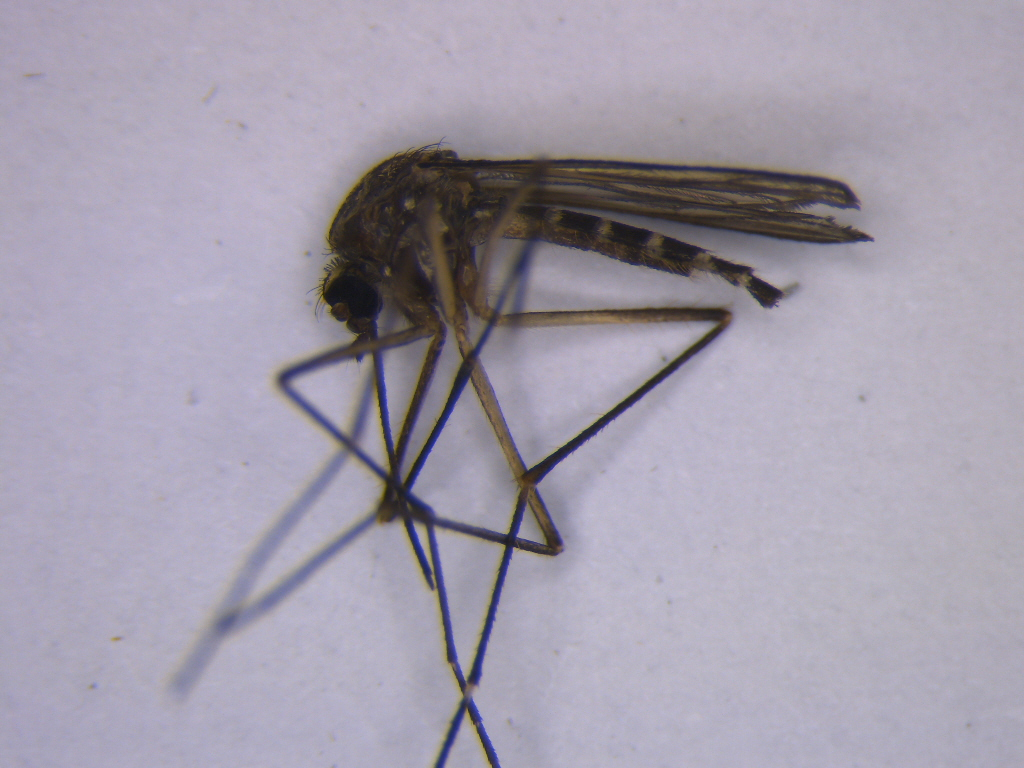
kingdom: Animalia
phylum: Arthropoda
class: Insecta
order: Diptera
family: Culicidae
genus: Aedes
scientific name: Aedes antipodeus
